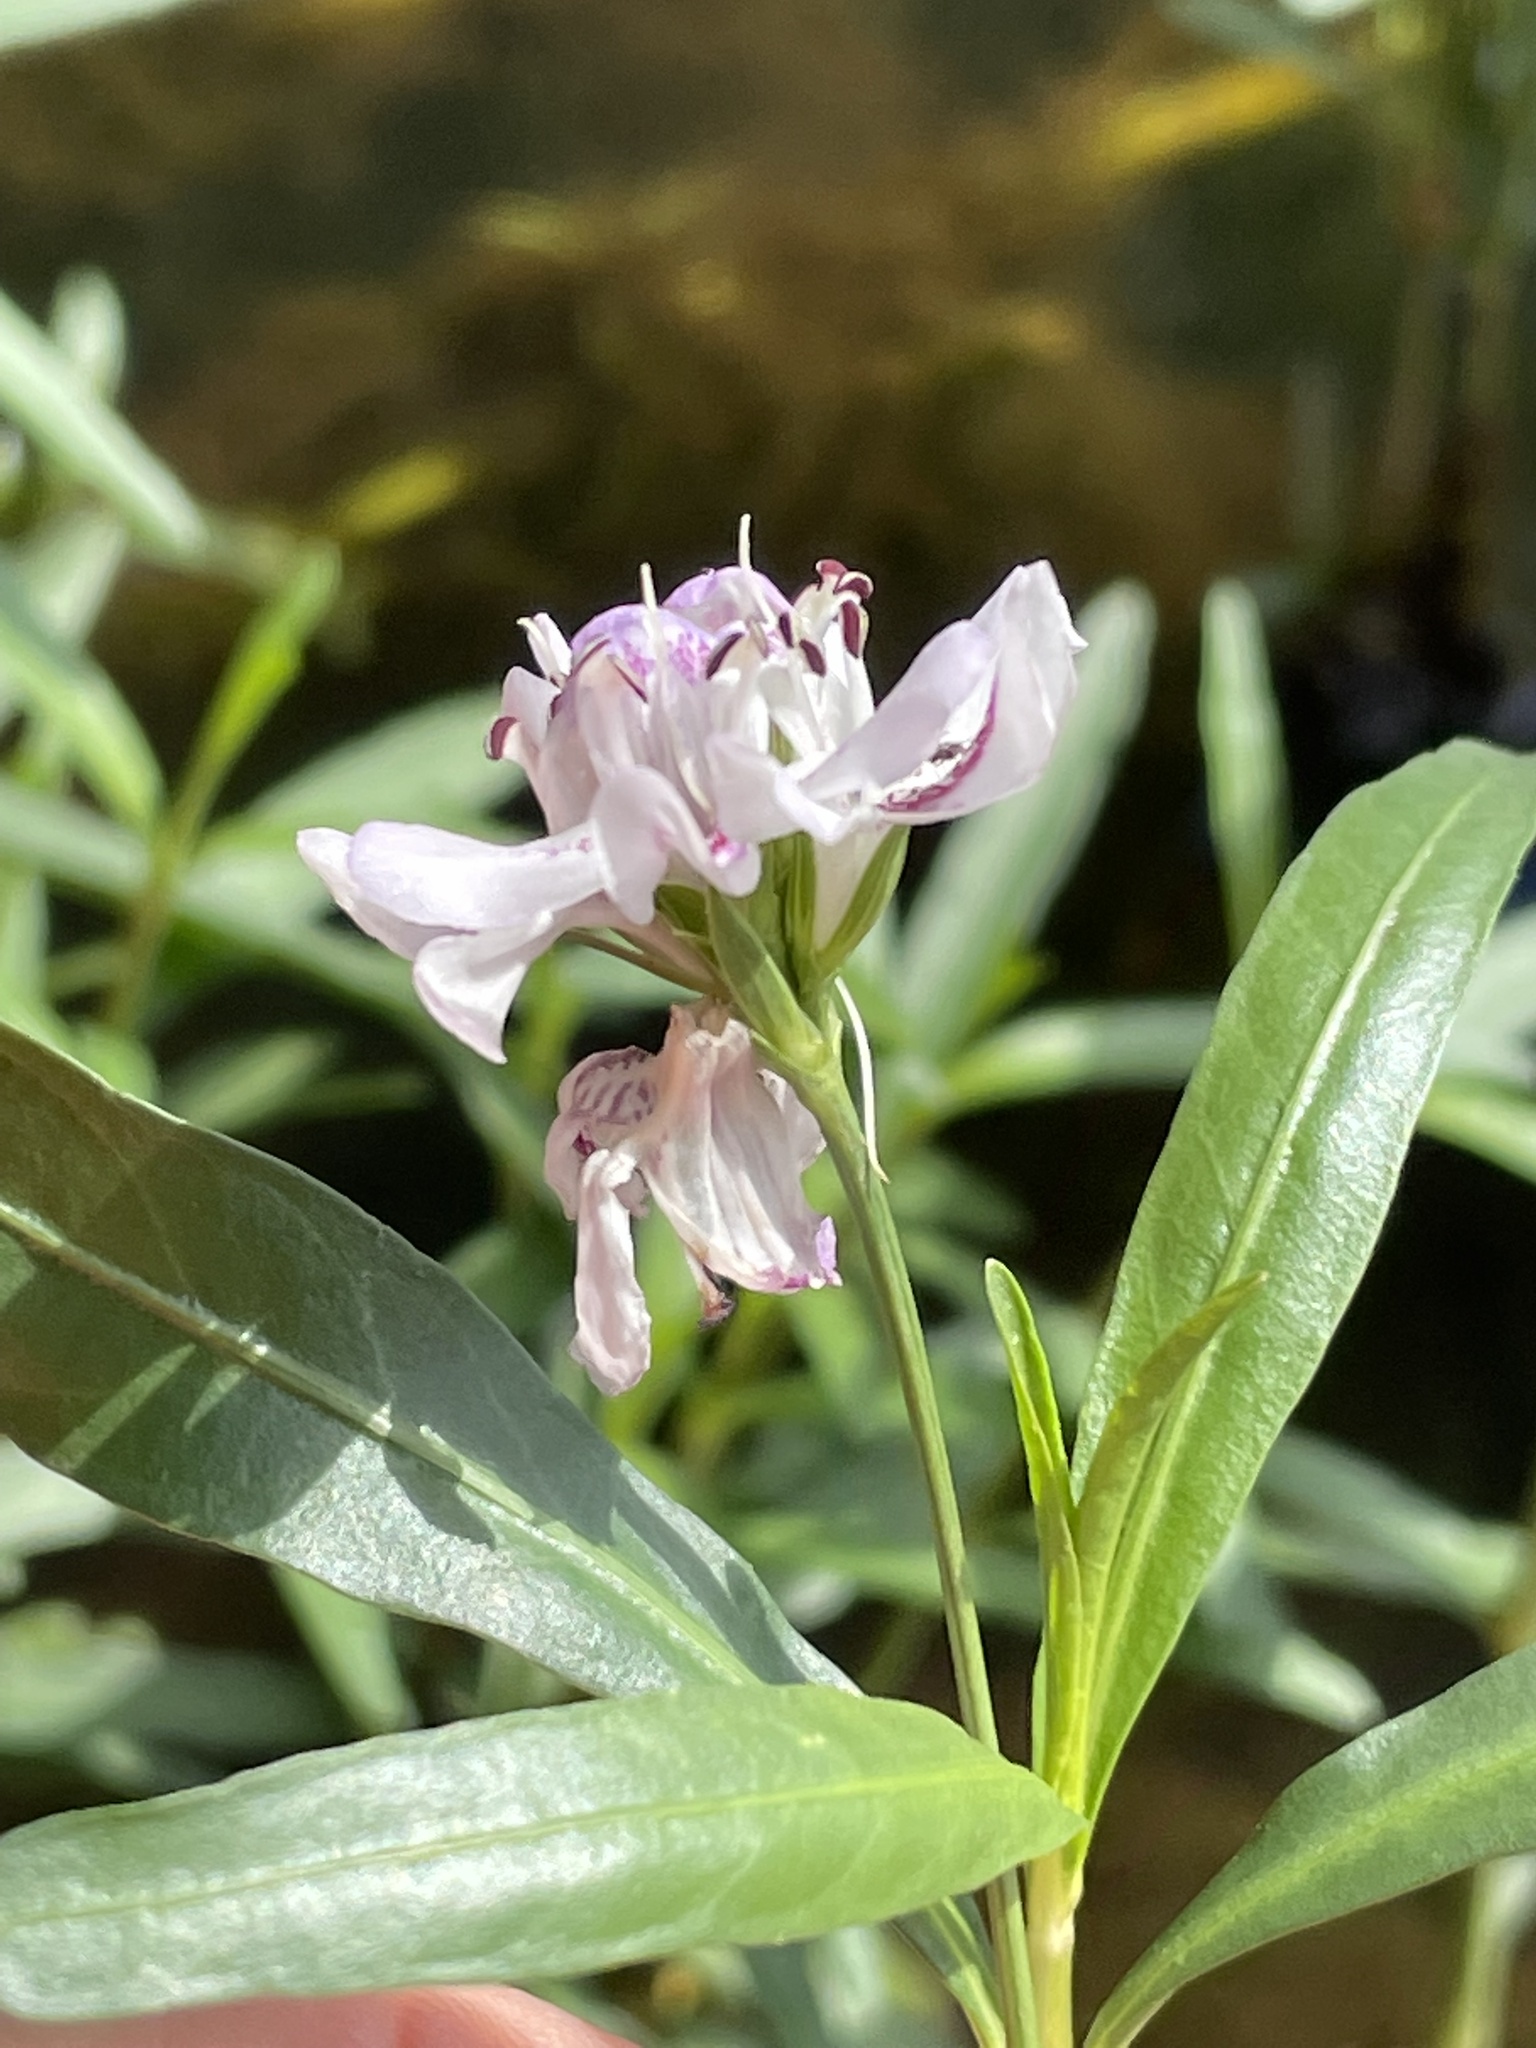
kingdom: Plantae
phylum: Tracheophyta
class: Magnoliopsida
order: Lamiales
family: Acanthaceae
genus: Dianthera
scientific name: Dianthera americana
